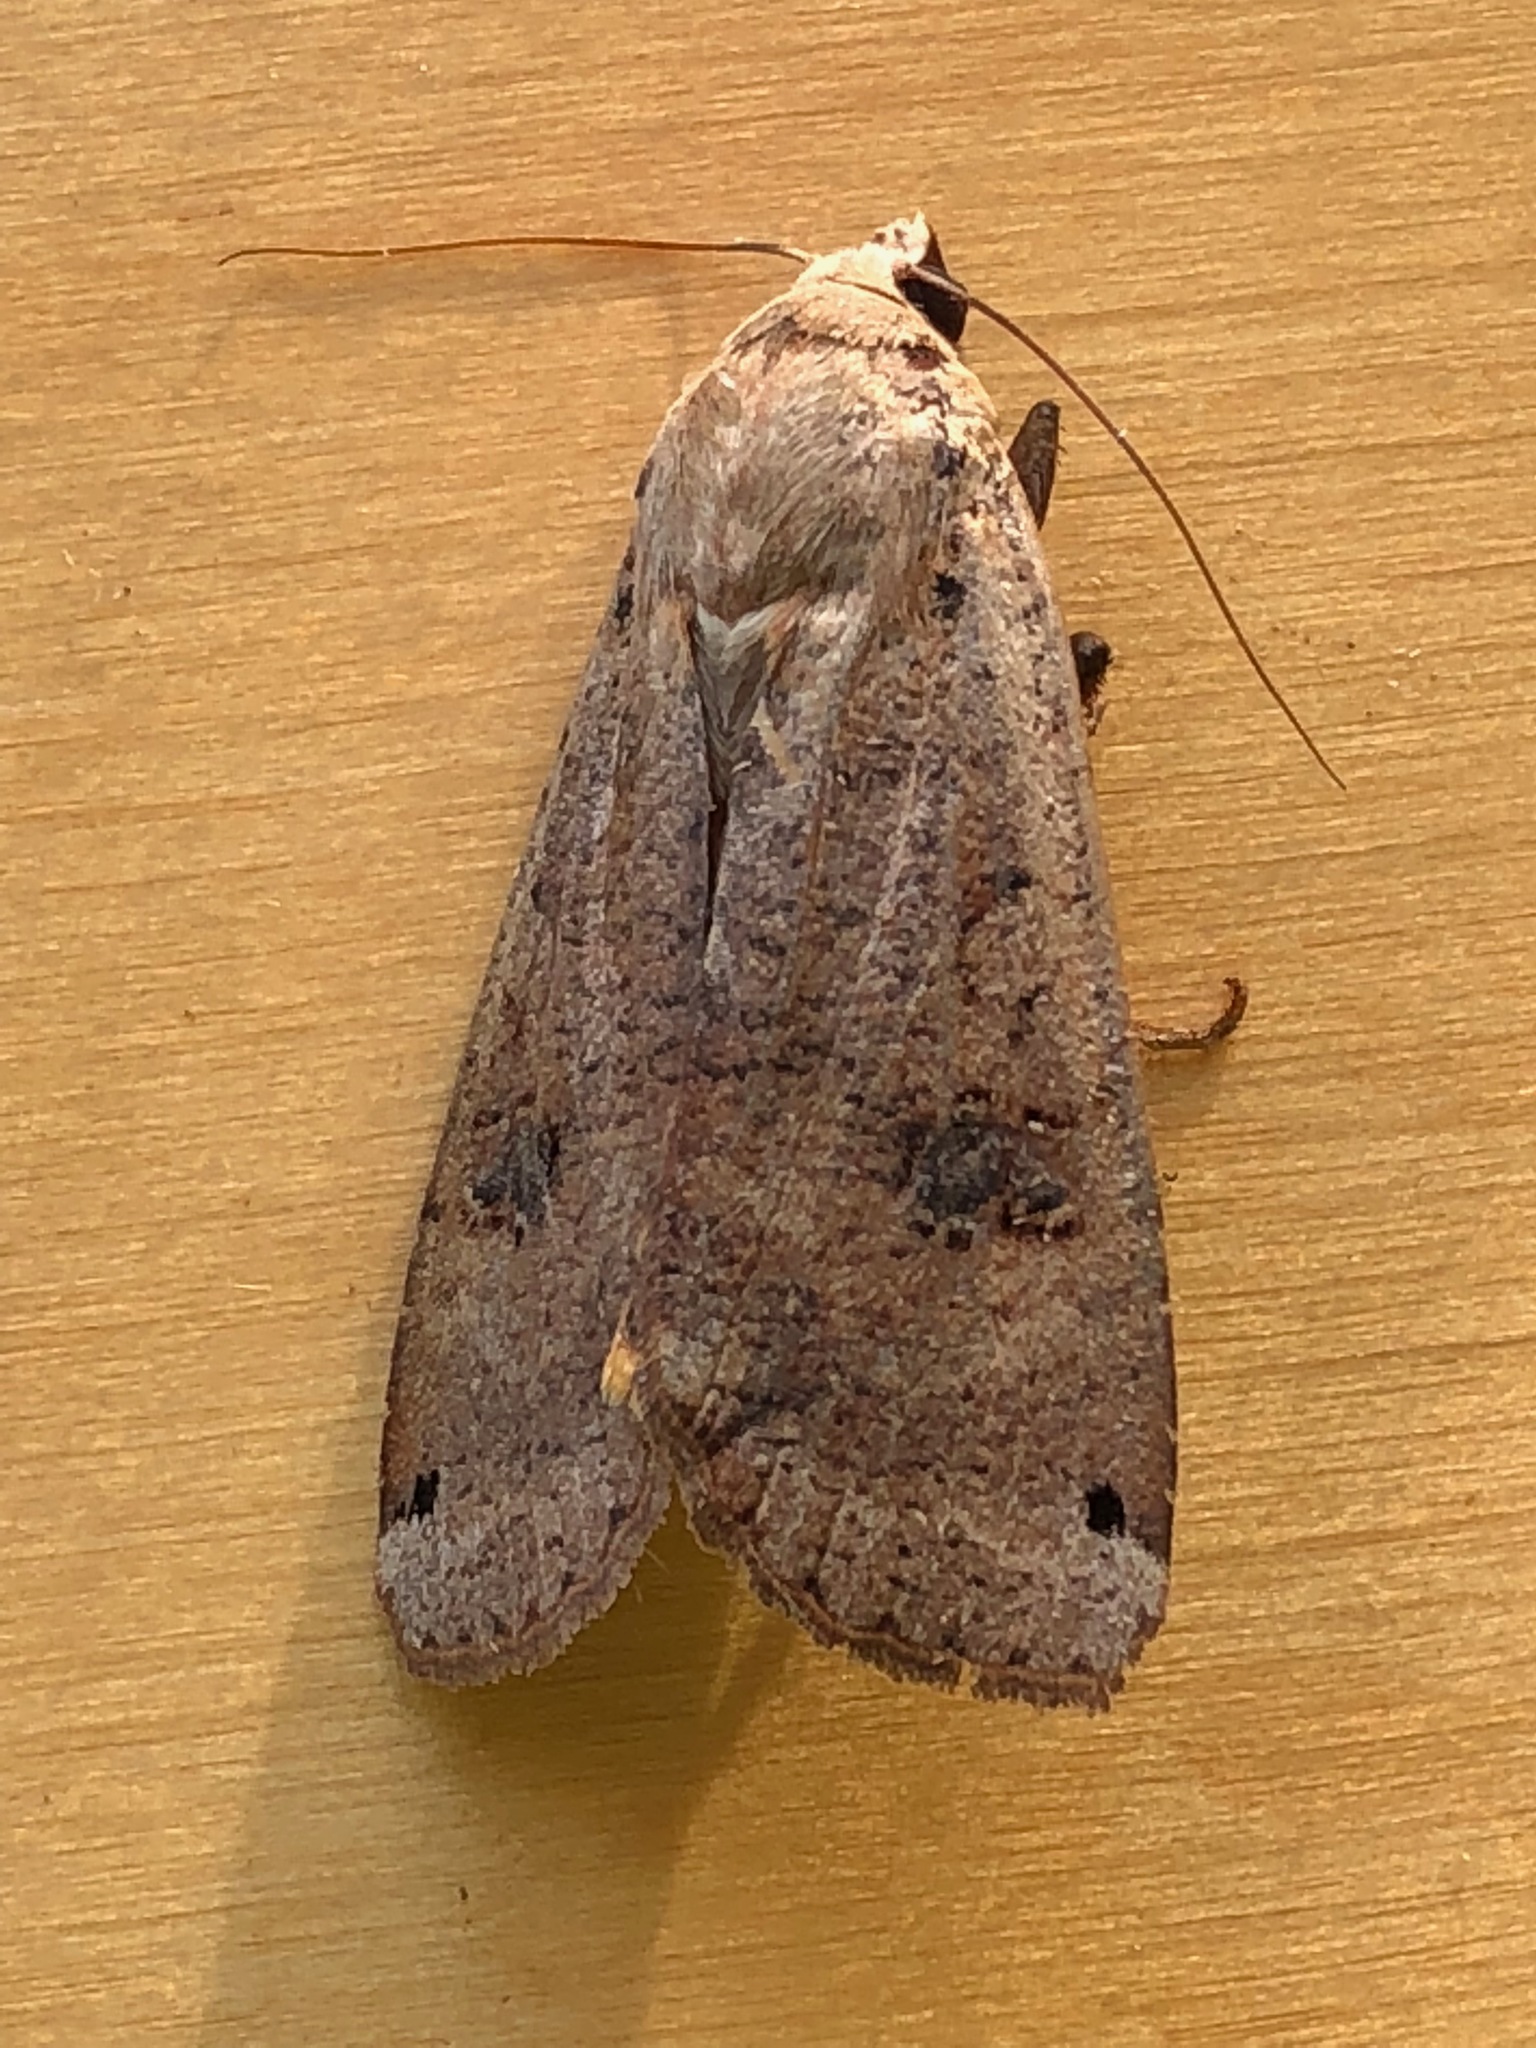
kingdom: Animalia
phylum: Arthropoda
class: Insecta
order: Lepidoptera
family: Noctuidae
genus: Noctua
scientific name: Noctua pronuba
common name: Large yellow underwing
